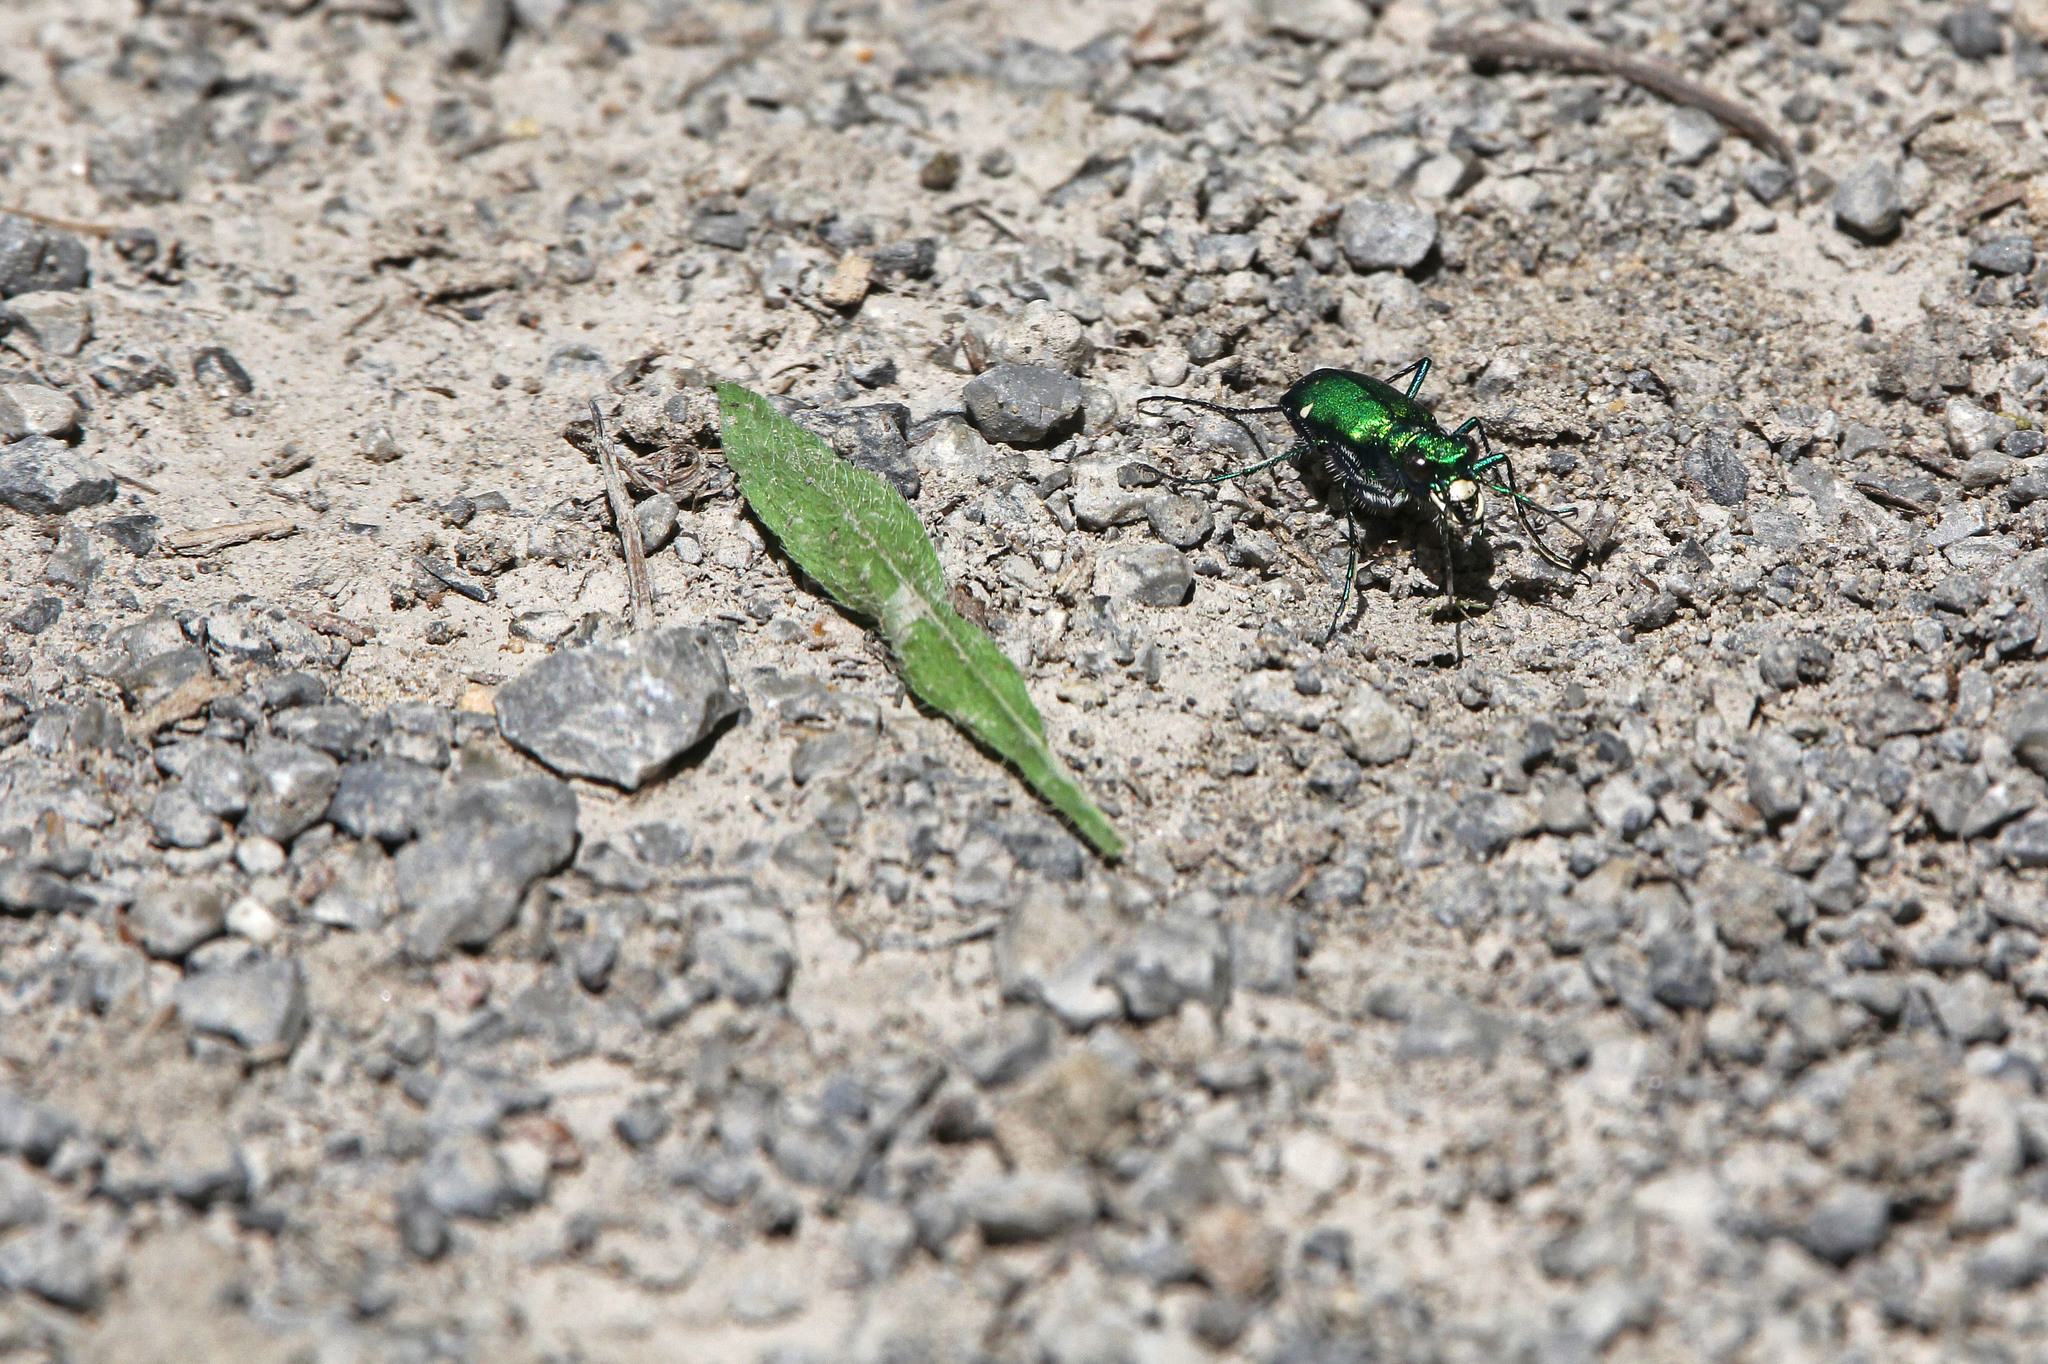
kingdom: Animalia
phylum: Arthropoda
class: Insecta
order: Coleoptera
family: Carabidae
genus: Cicindela
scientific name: Cicindela sexguttata
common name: Six-spotted tiger beetle
